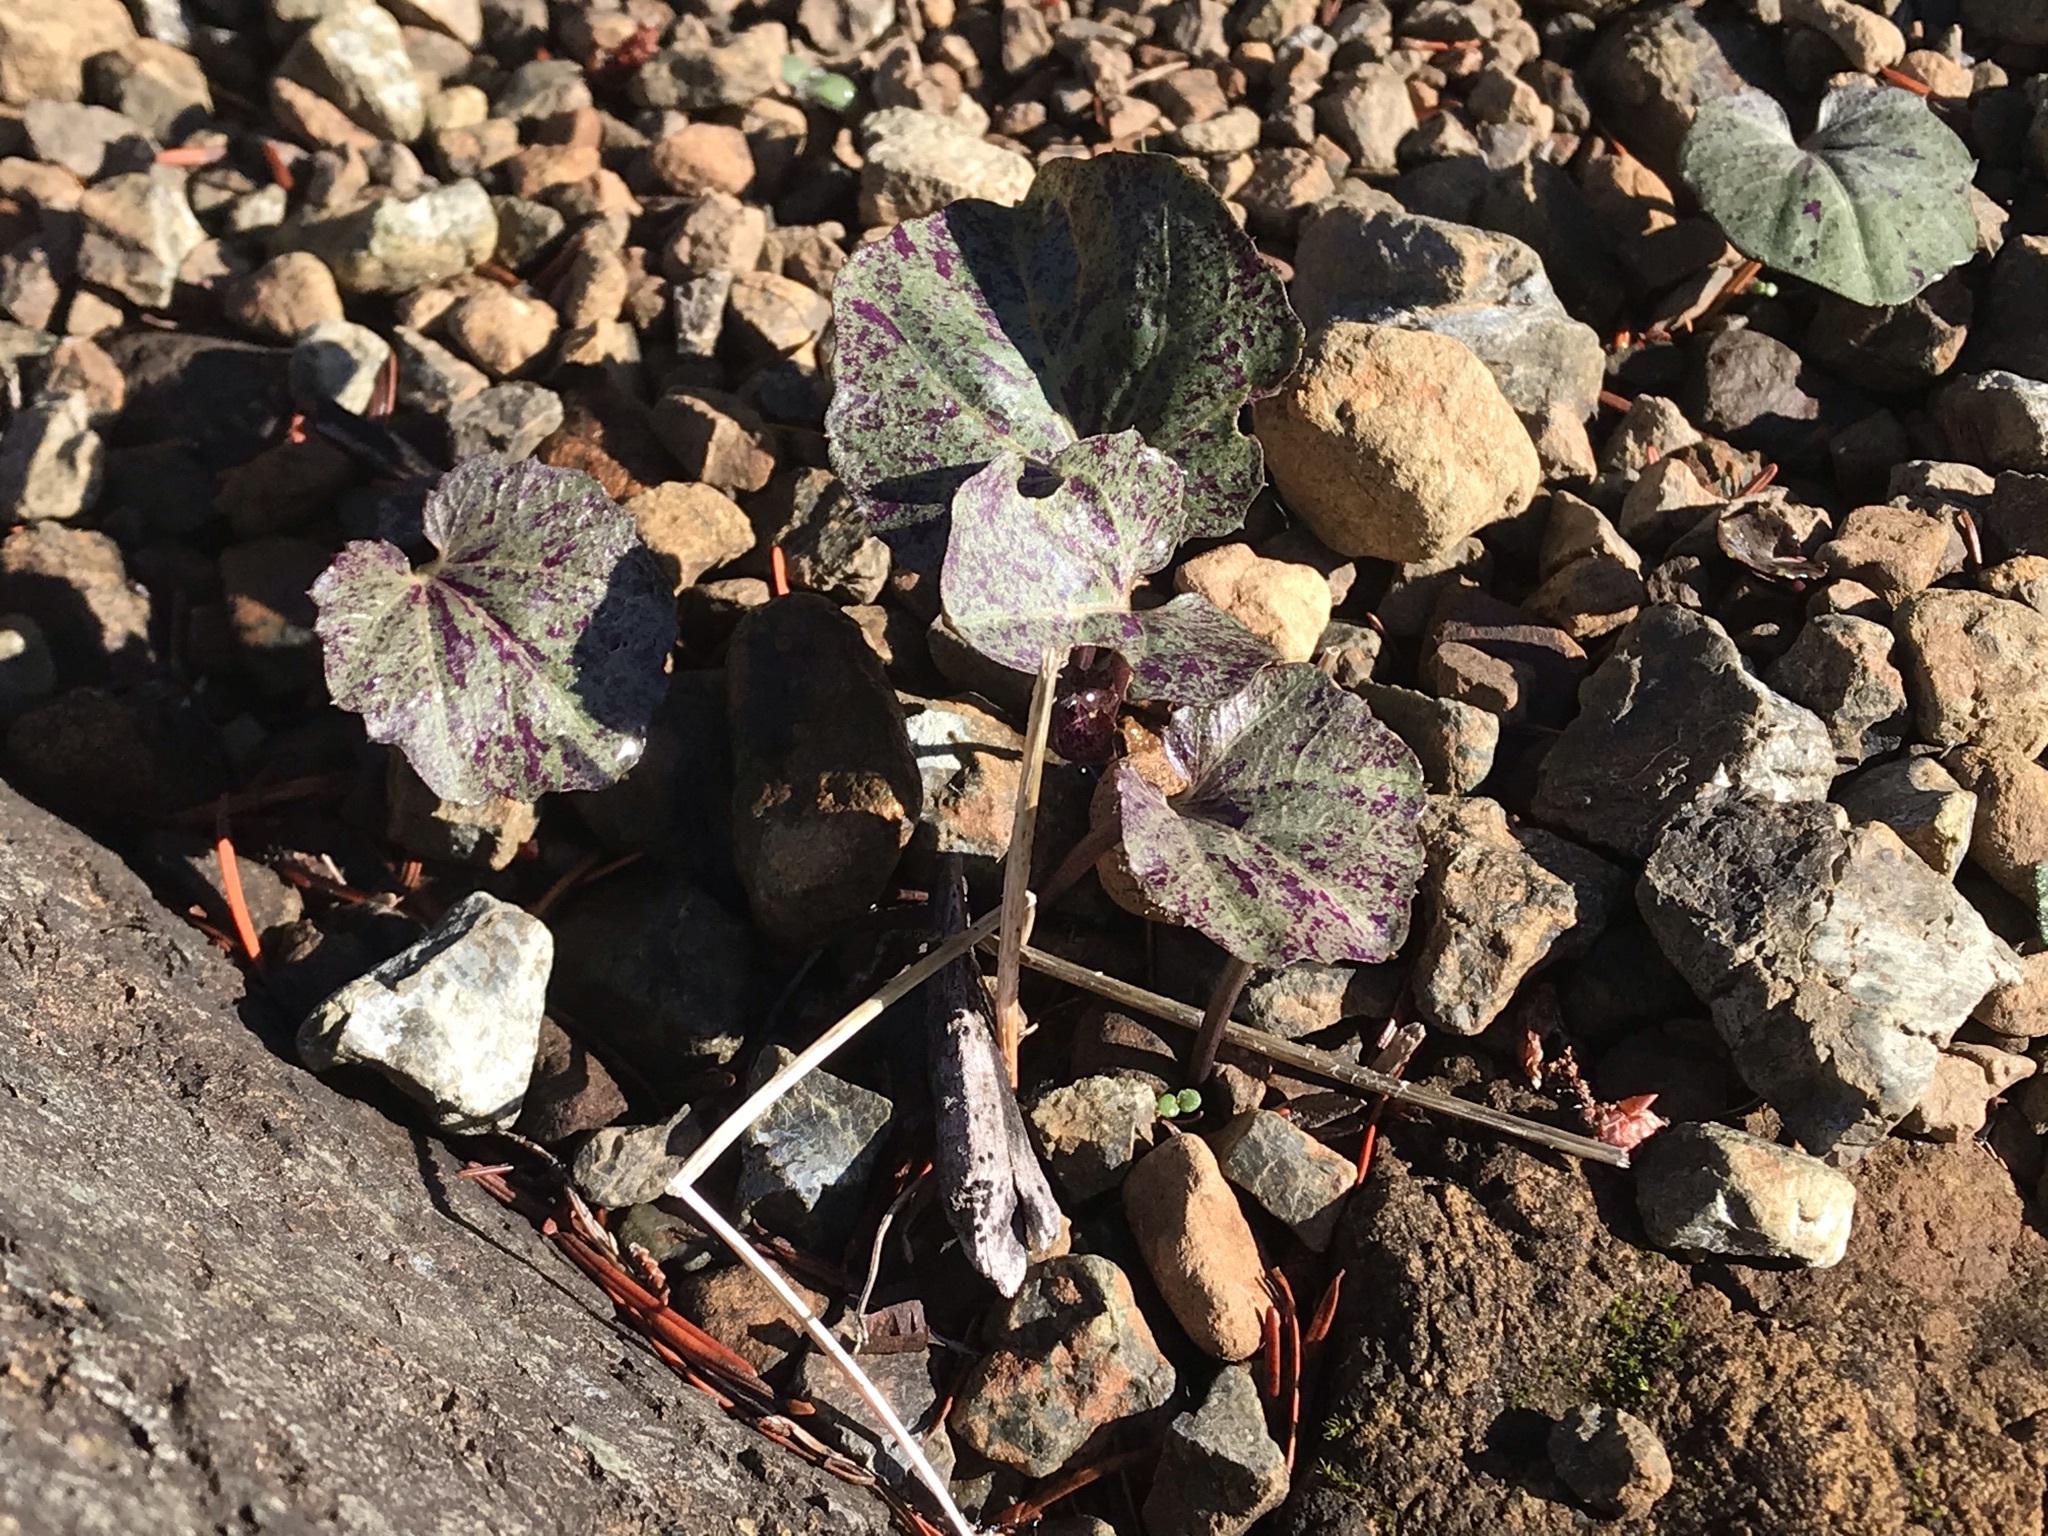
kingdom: Plantae
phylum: Tracheophyta
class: Magnoliopsida
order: Brassicales
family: Brassicaceae
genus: Cardamine
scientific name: Cardamine californica
